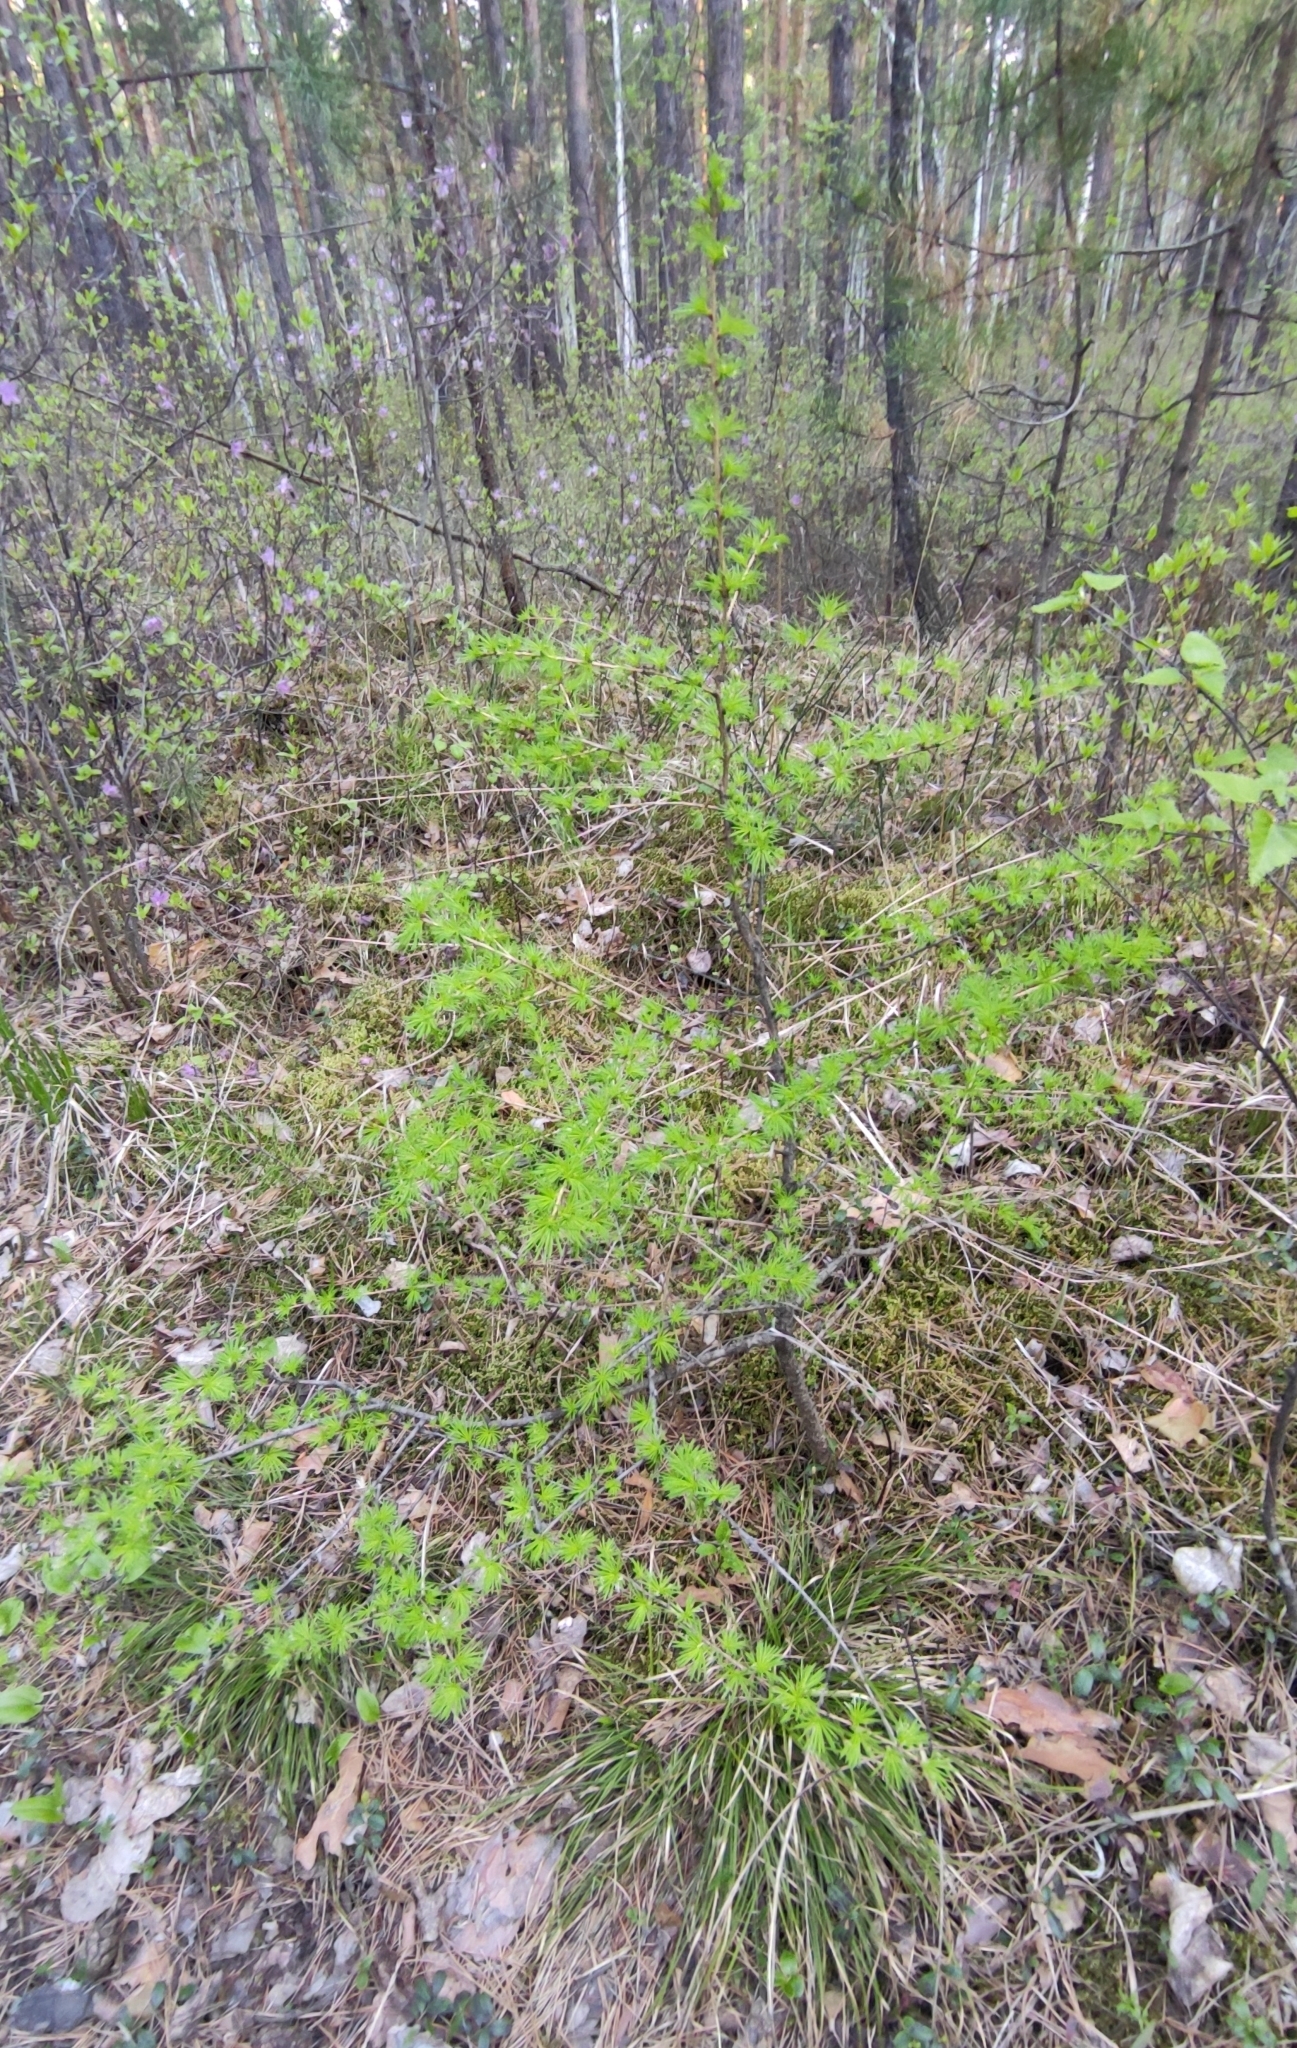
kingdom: Plantae
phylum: Tracheophyta
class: Pinopsida
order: Pinales
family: Pinaceae
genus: Larix
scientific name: Larix sibirica
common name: Siberian larch
